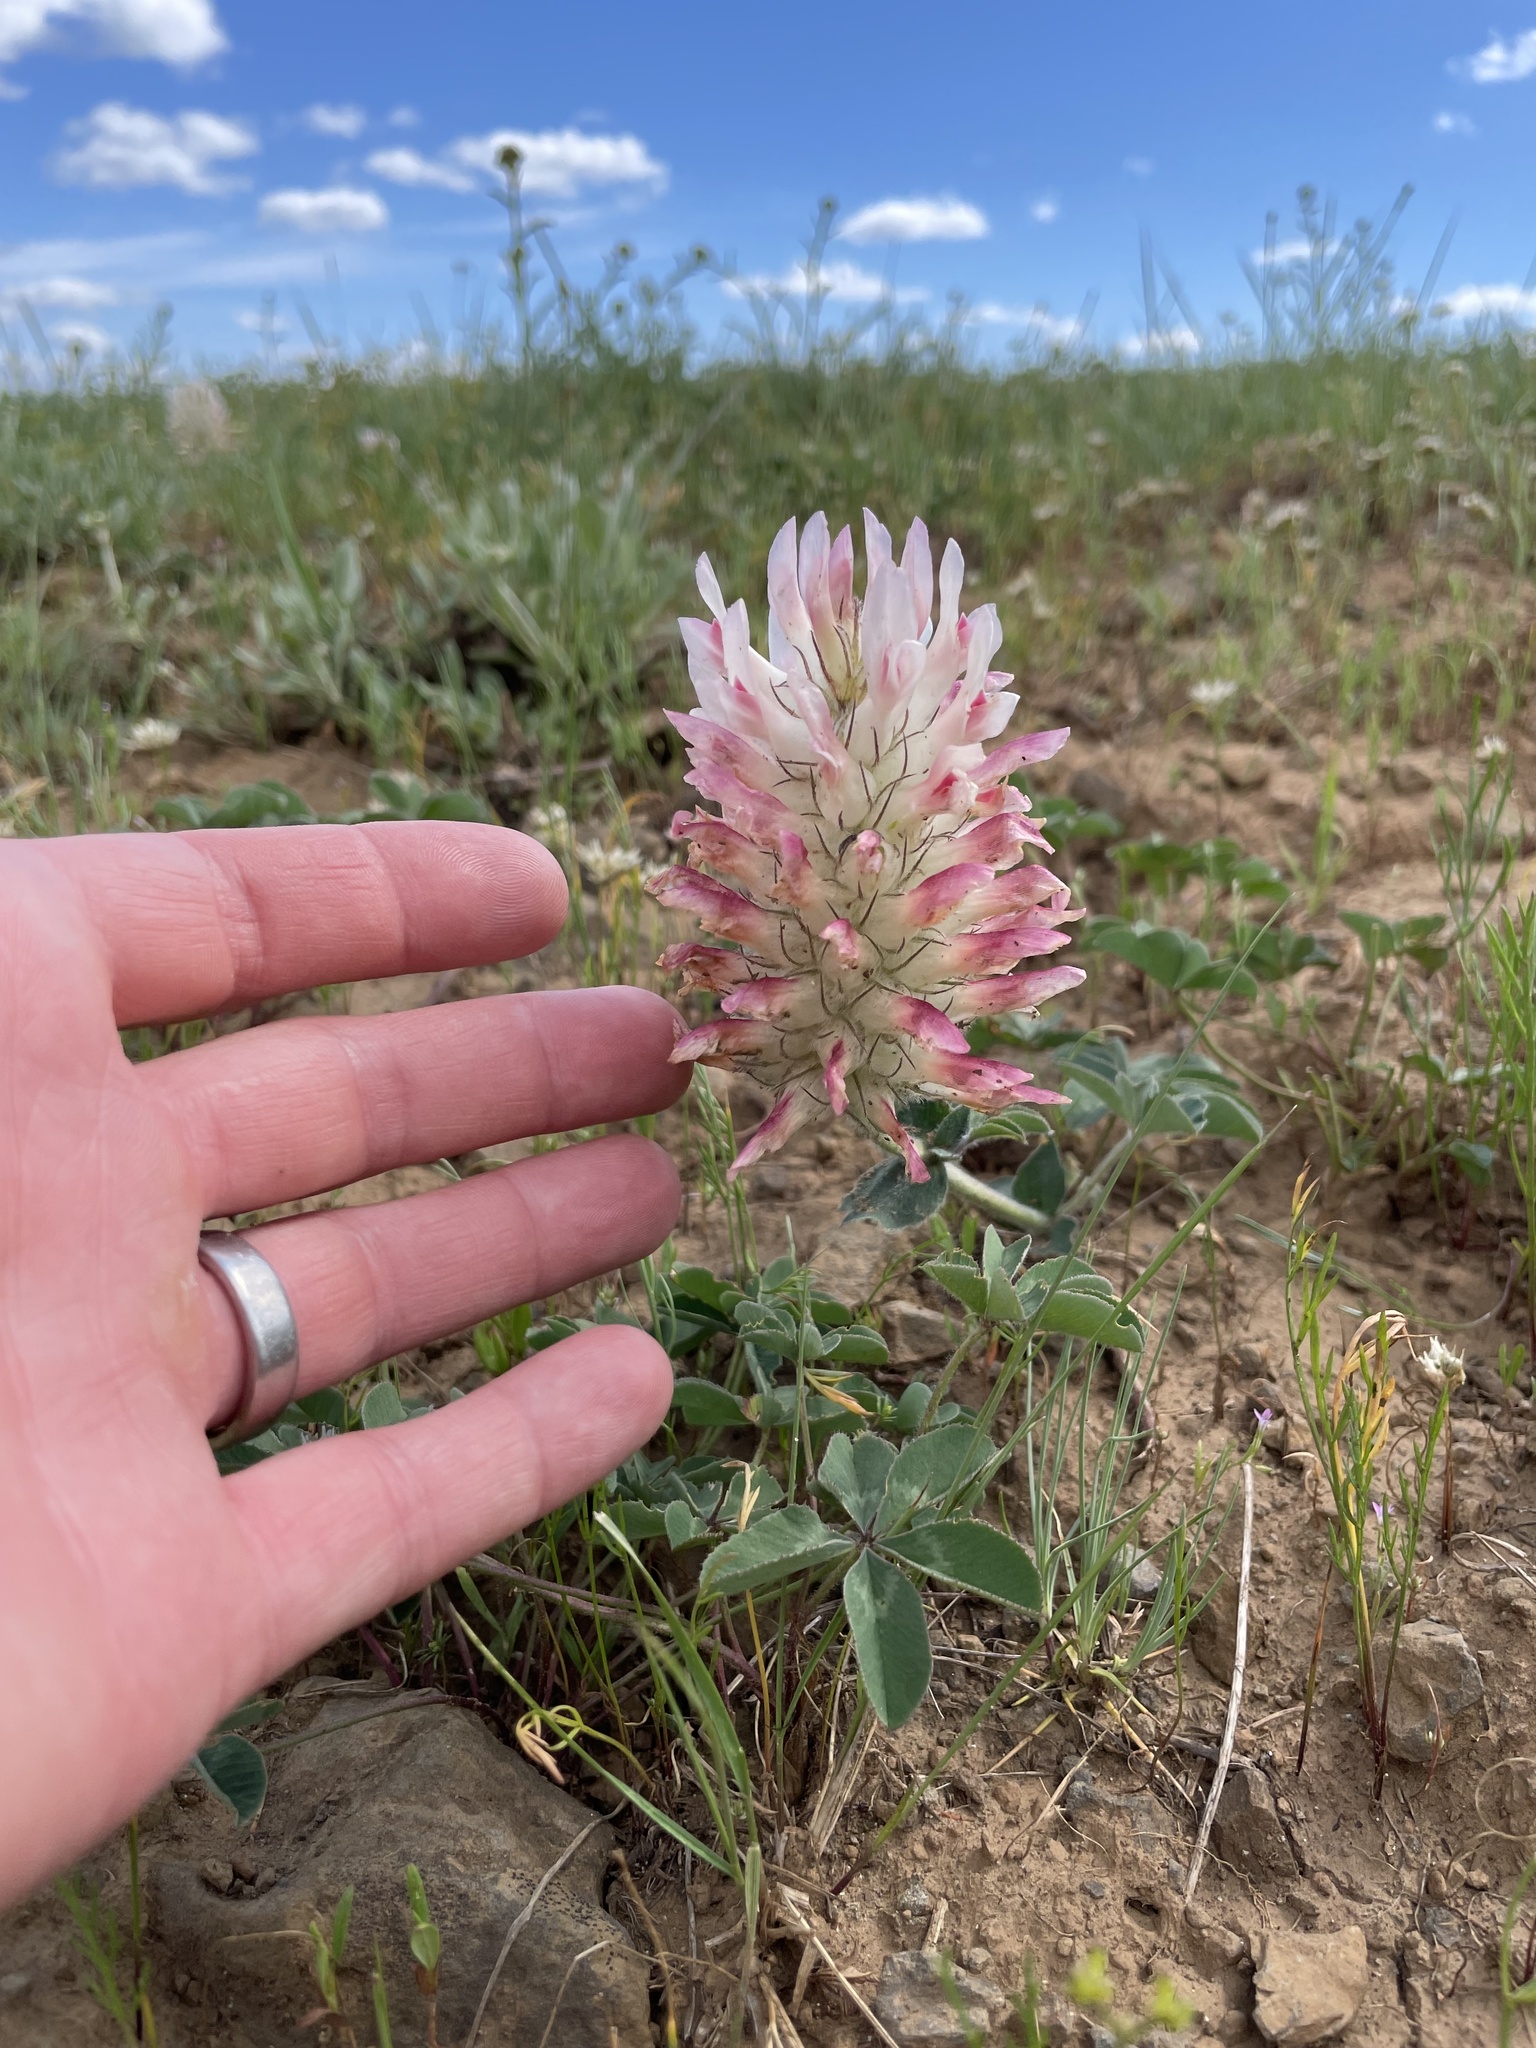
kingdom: Plantae
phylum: Tracheophyta
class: Magnoliopsida
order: Fabales
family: Fabaceae
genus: Trifolium
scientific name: Trifolium macrocephalum
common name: Large-head clover
